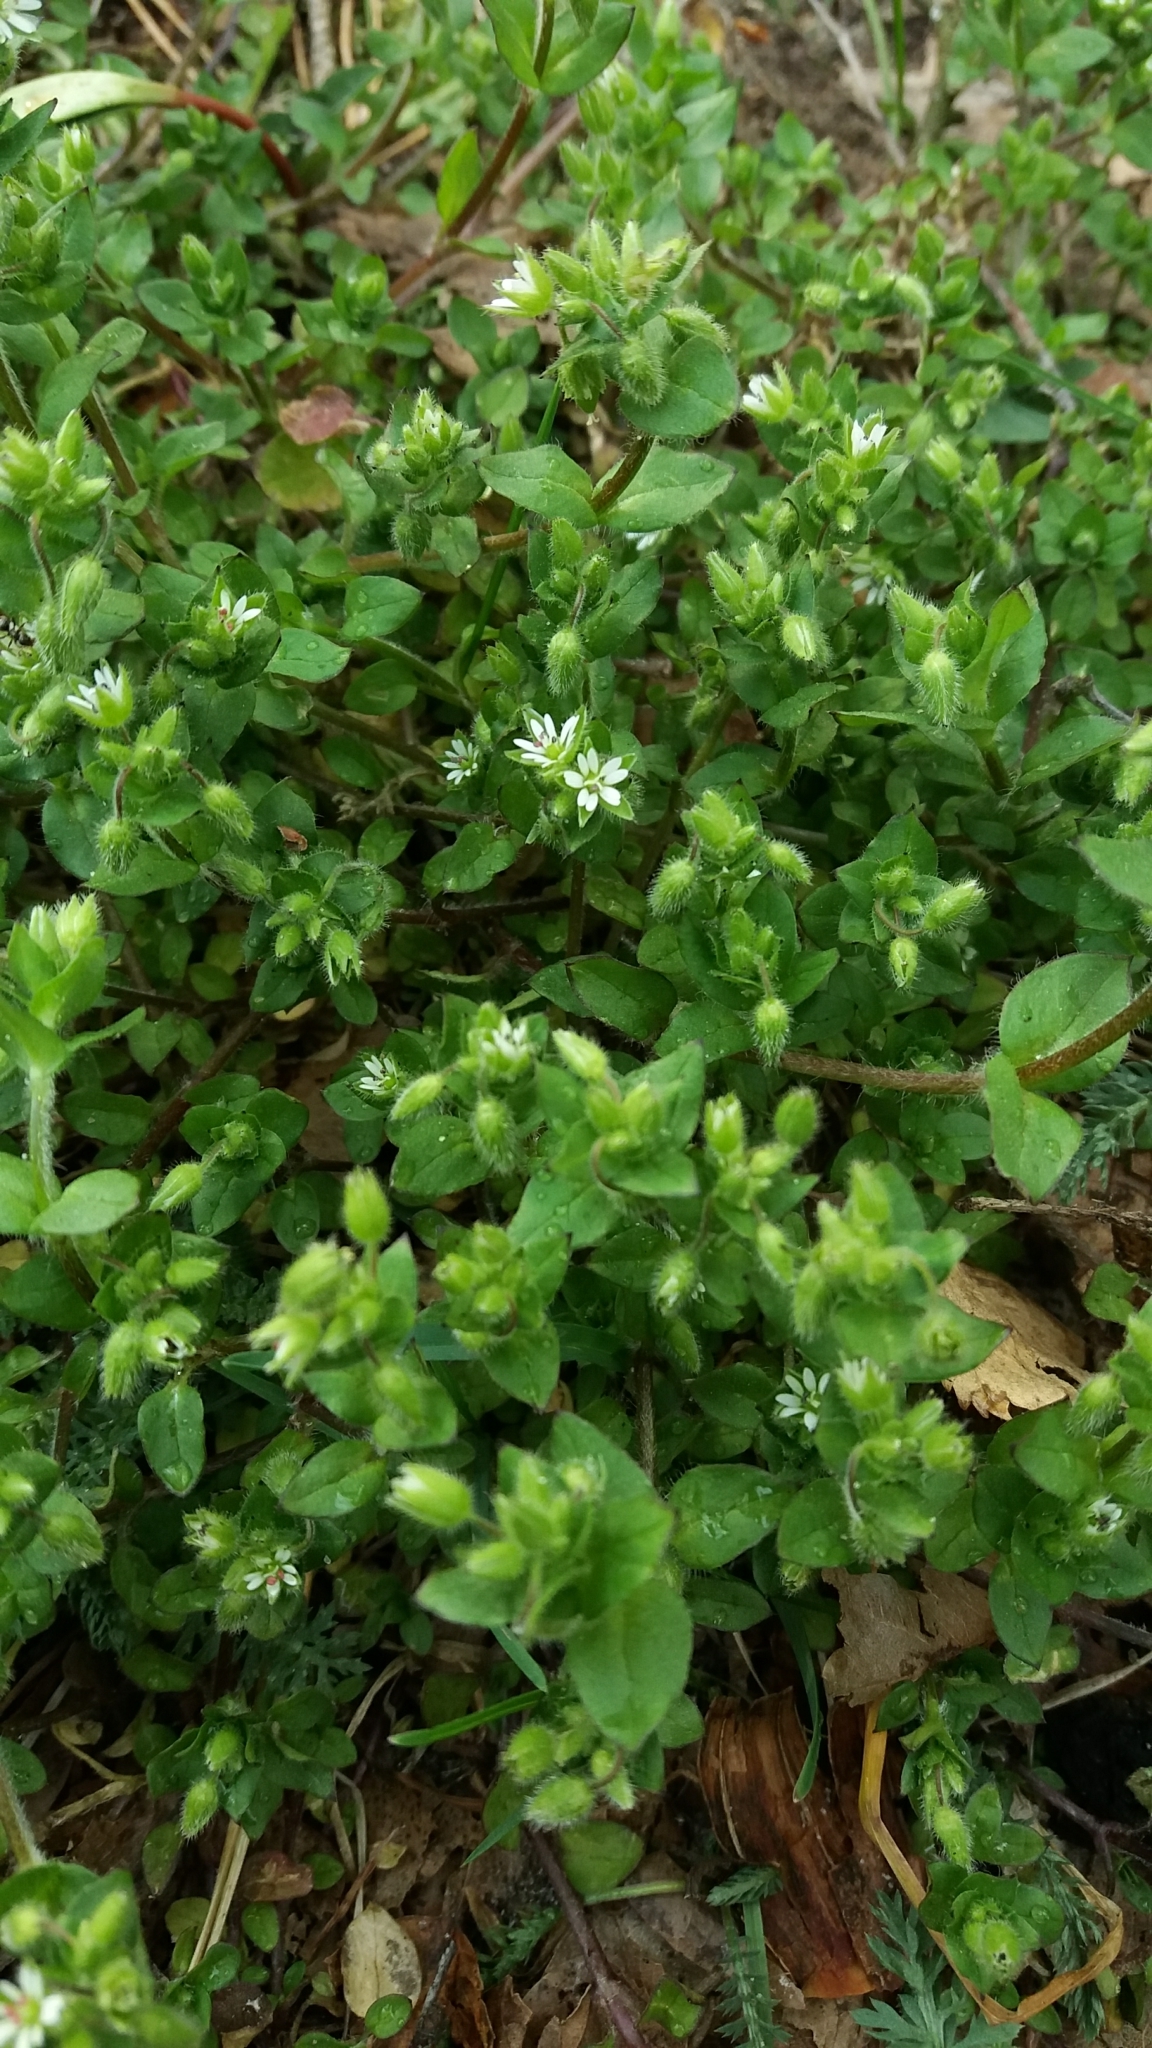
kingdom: Plantae
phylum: Tracheophyta
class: Magnoliopsida
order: Caryophyllales
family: Caryophyllaceae
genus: Stellaria
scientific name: Stellaria media
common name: Common chickweed
